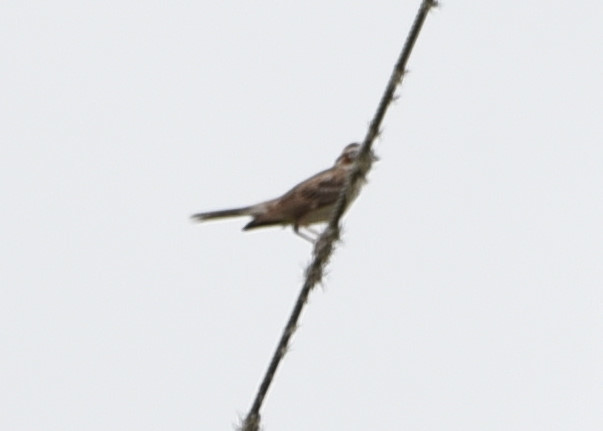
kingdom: Animalia
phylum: Chordata
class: Aves
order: Passeriformes
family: Passerellidae
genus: Chondestes
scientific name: Chondestes grammacus
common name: Lark sparrow
